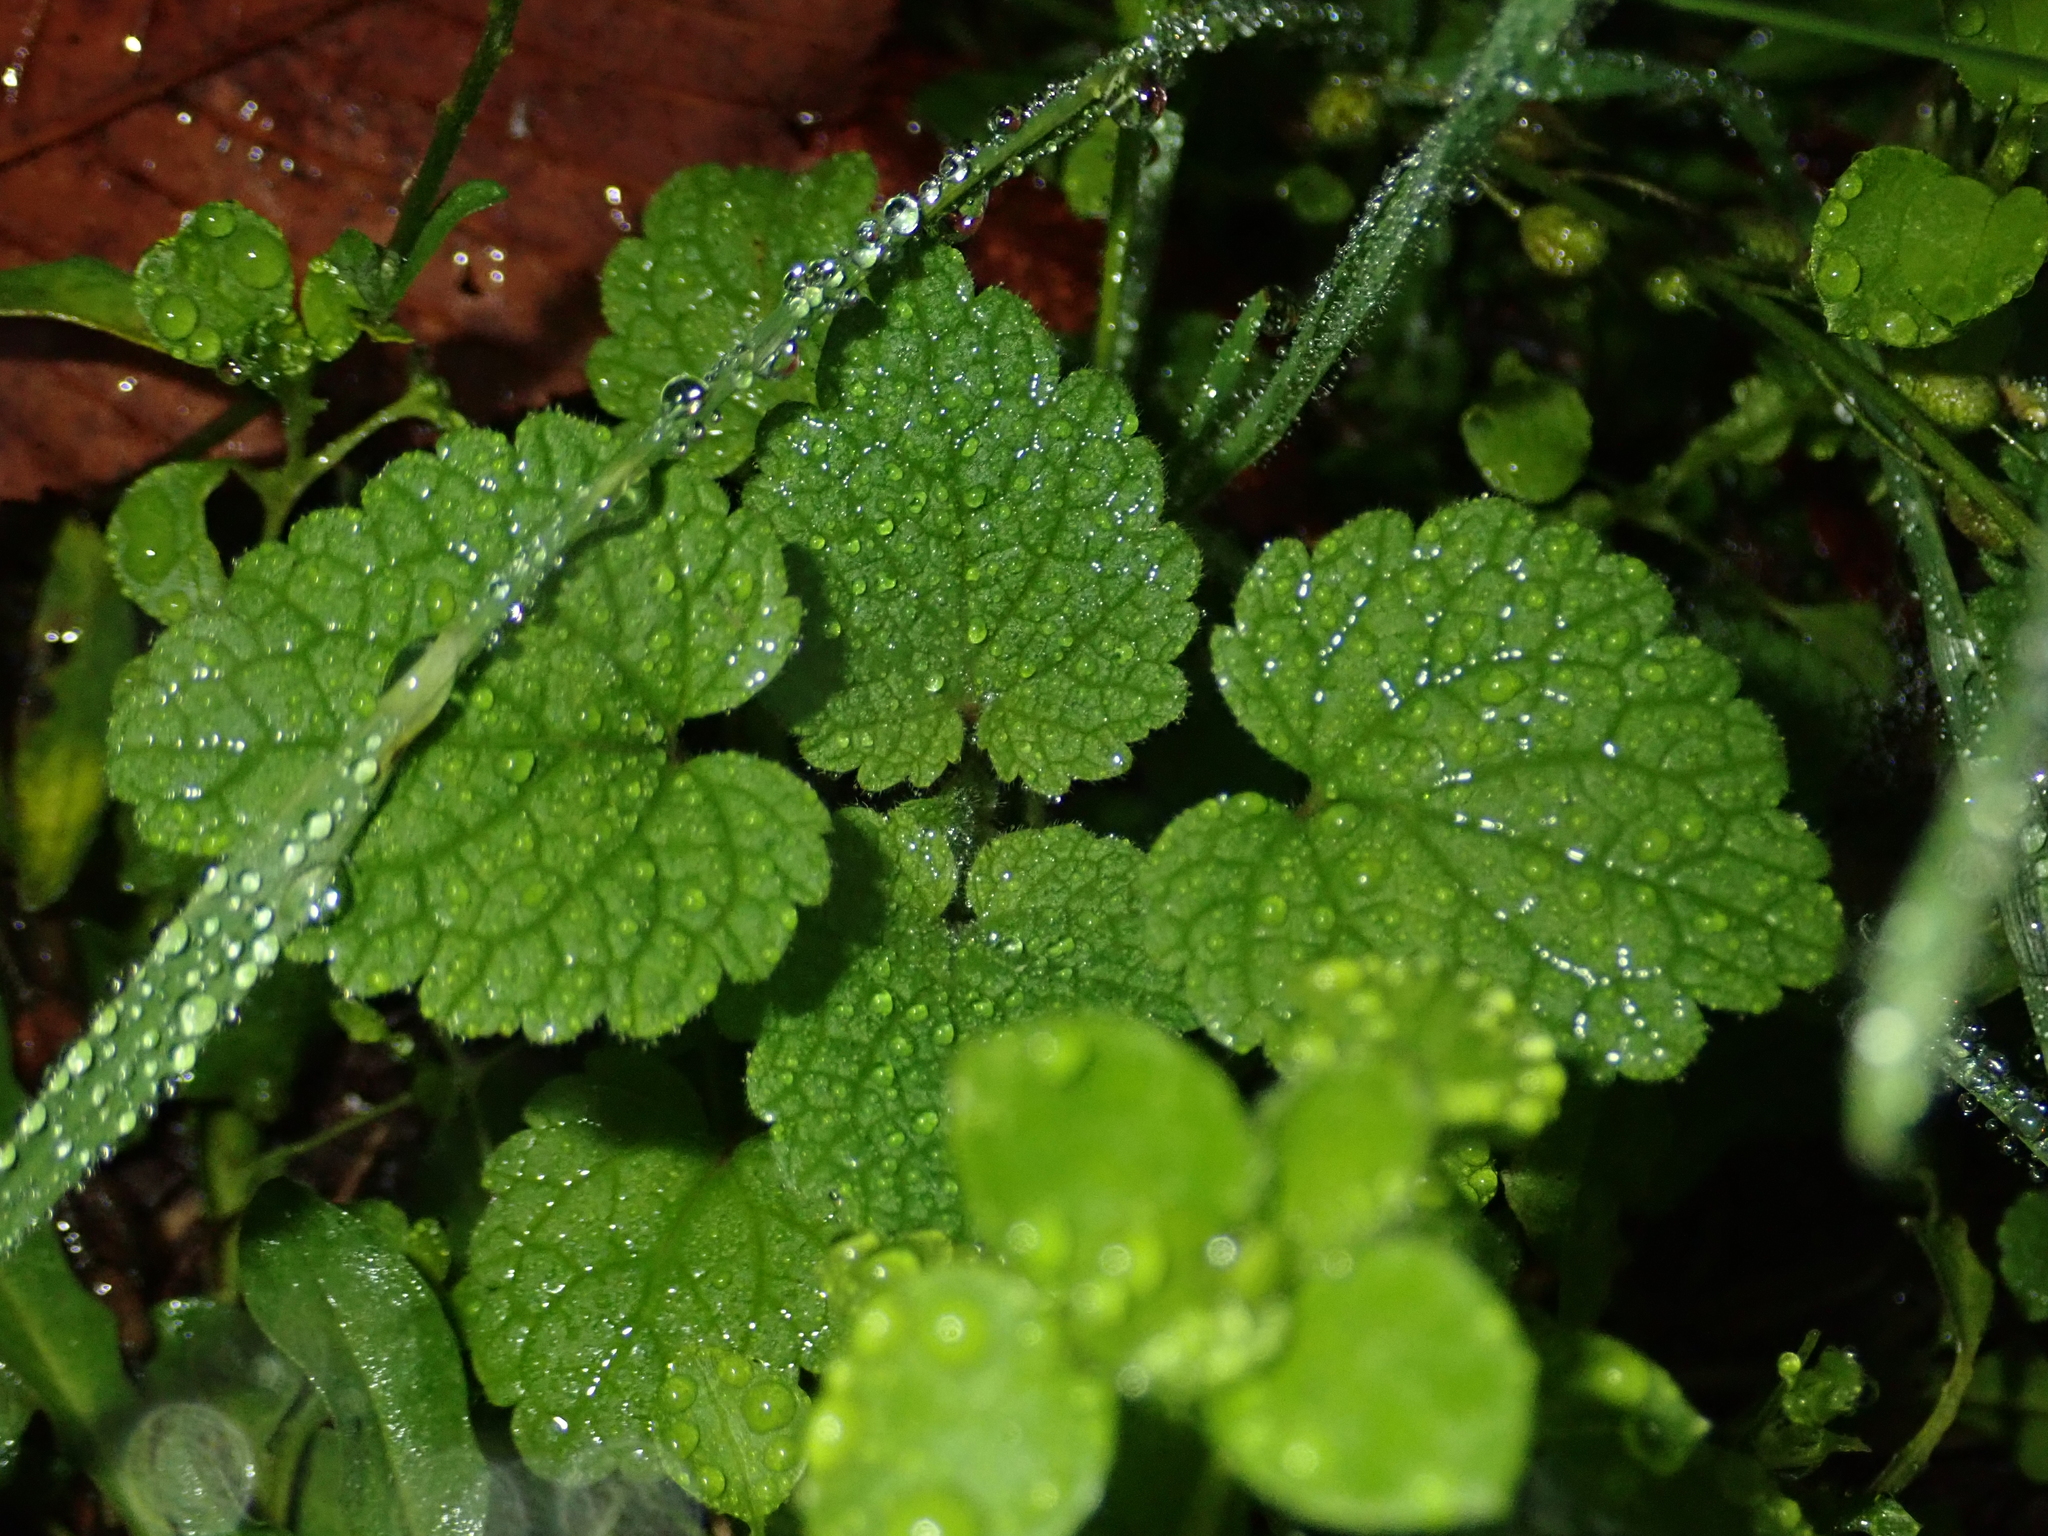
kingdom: Plantae
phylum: Tracheophyta
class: Magnoliopsida
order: Lamiales
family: Lamiaceae
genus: Lamium
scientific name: Lamium purpureum
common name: Red dead-nettle
